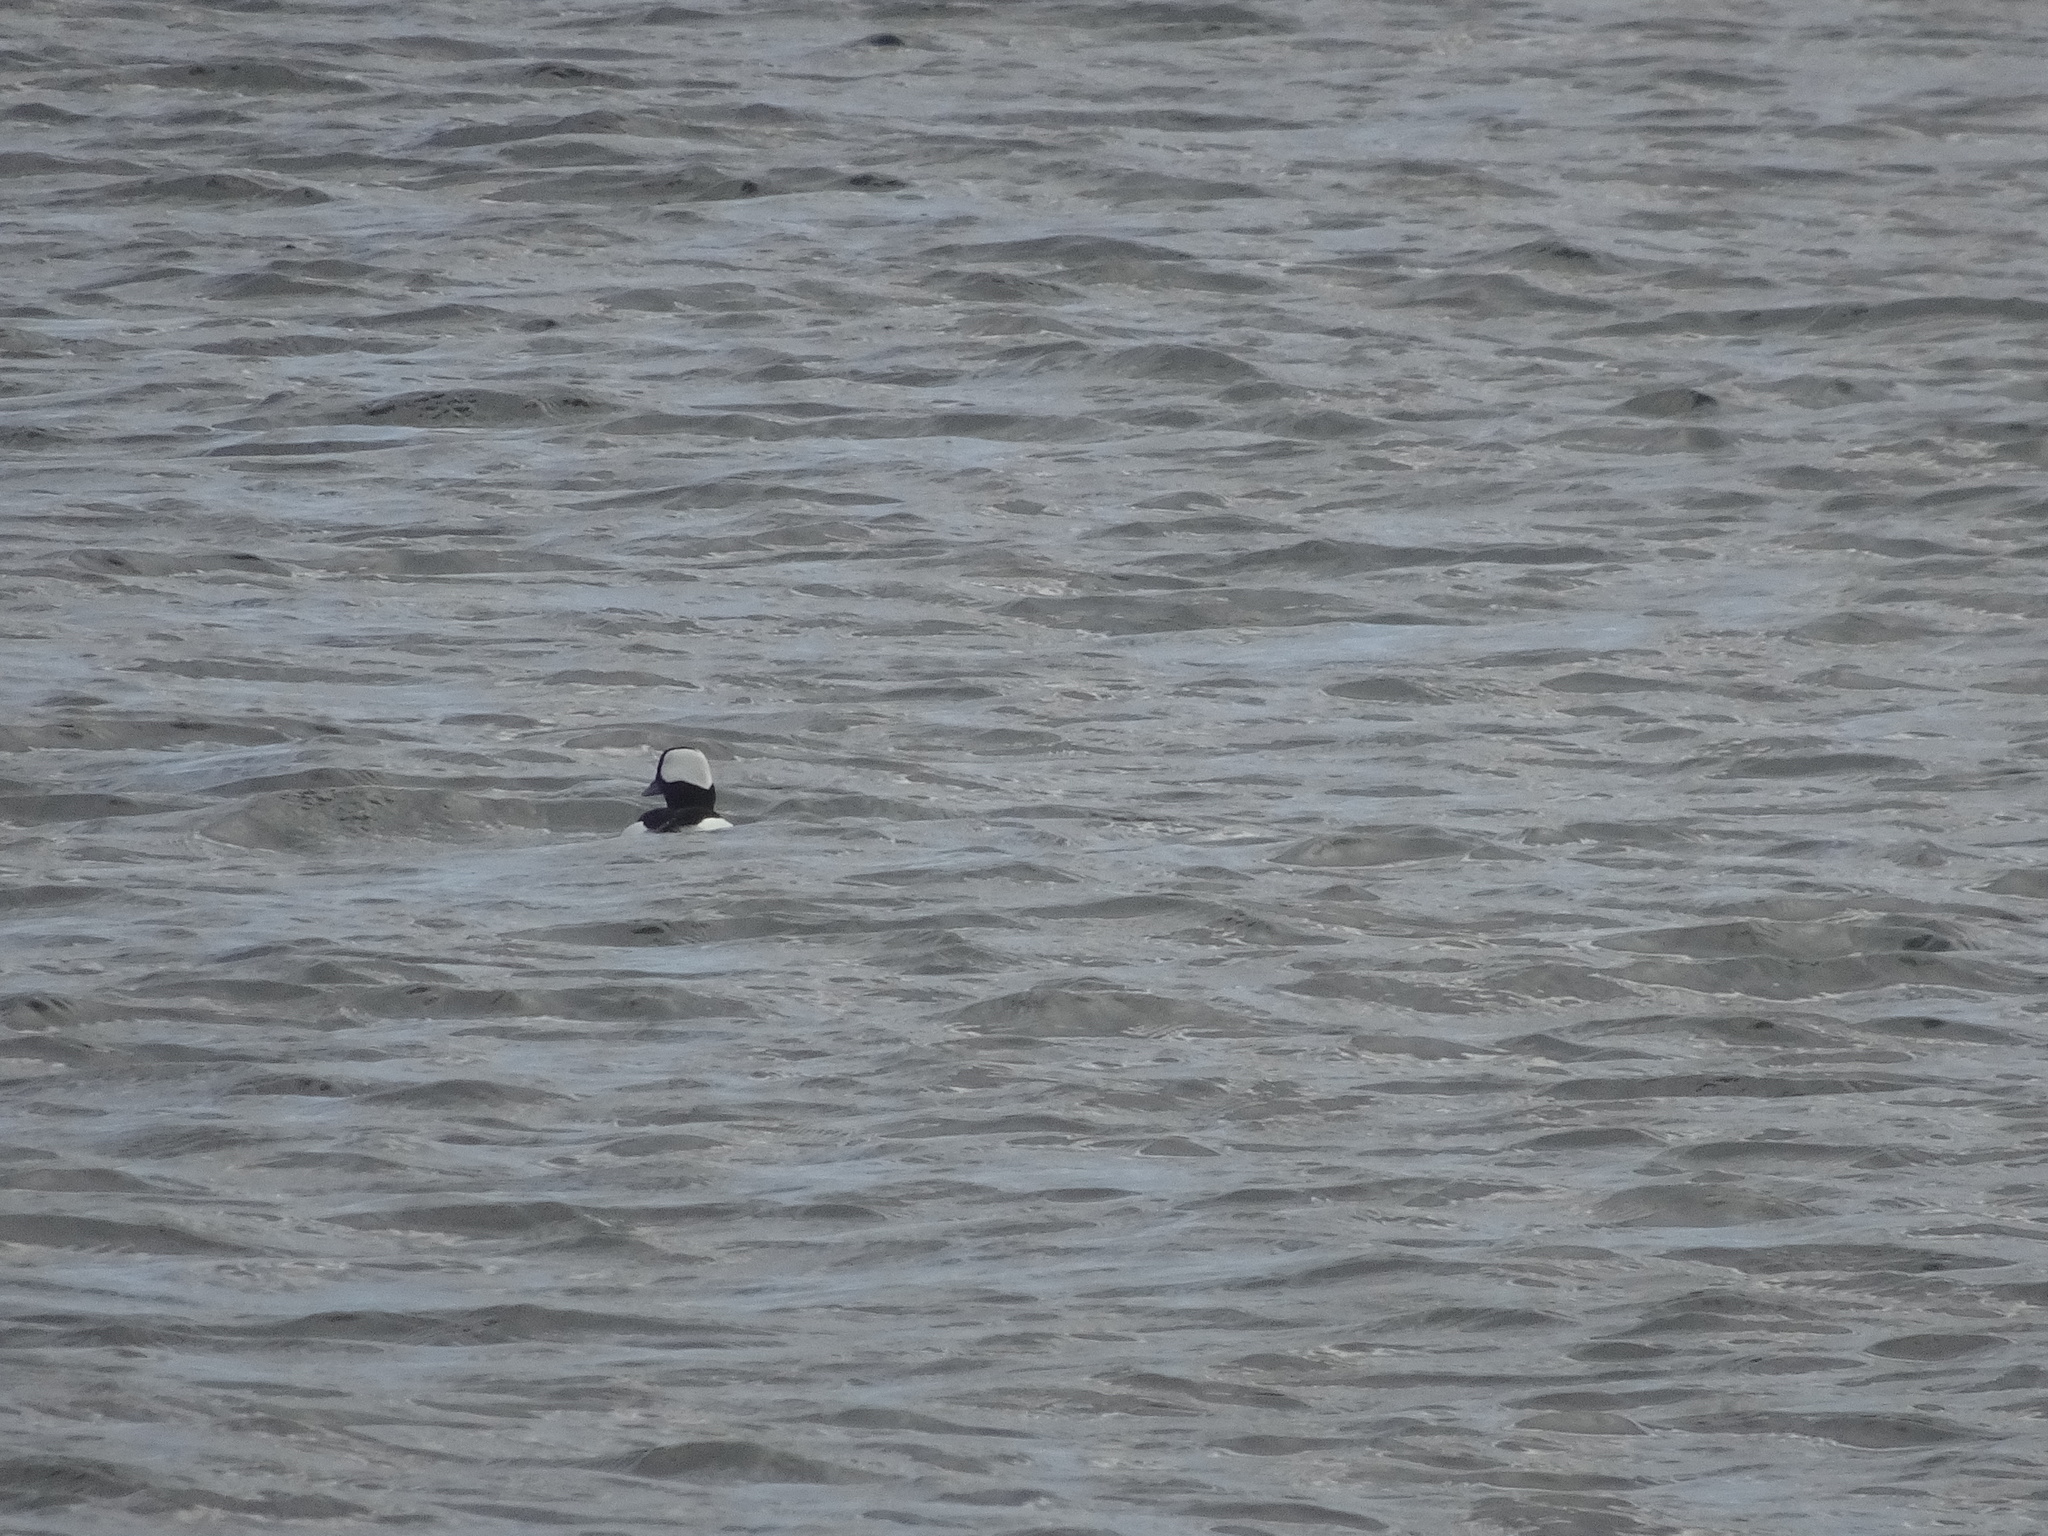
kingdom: Animalia
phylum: Chordata
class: Aves
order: Anseriformes
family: Anatidae
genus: Bucephala
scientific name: Bucephala albeola
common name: Bufflehead
